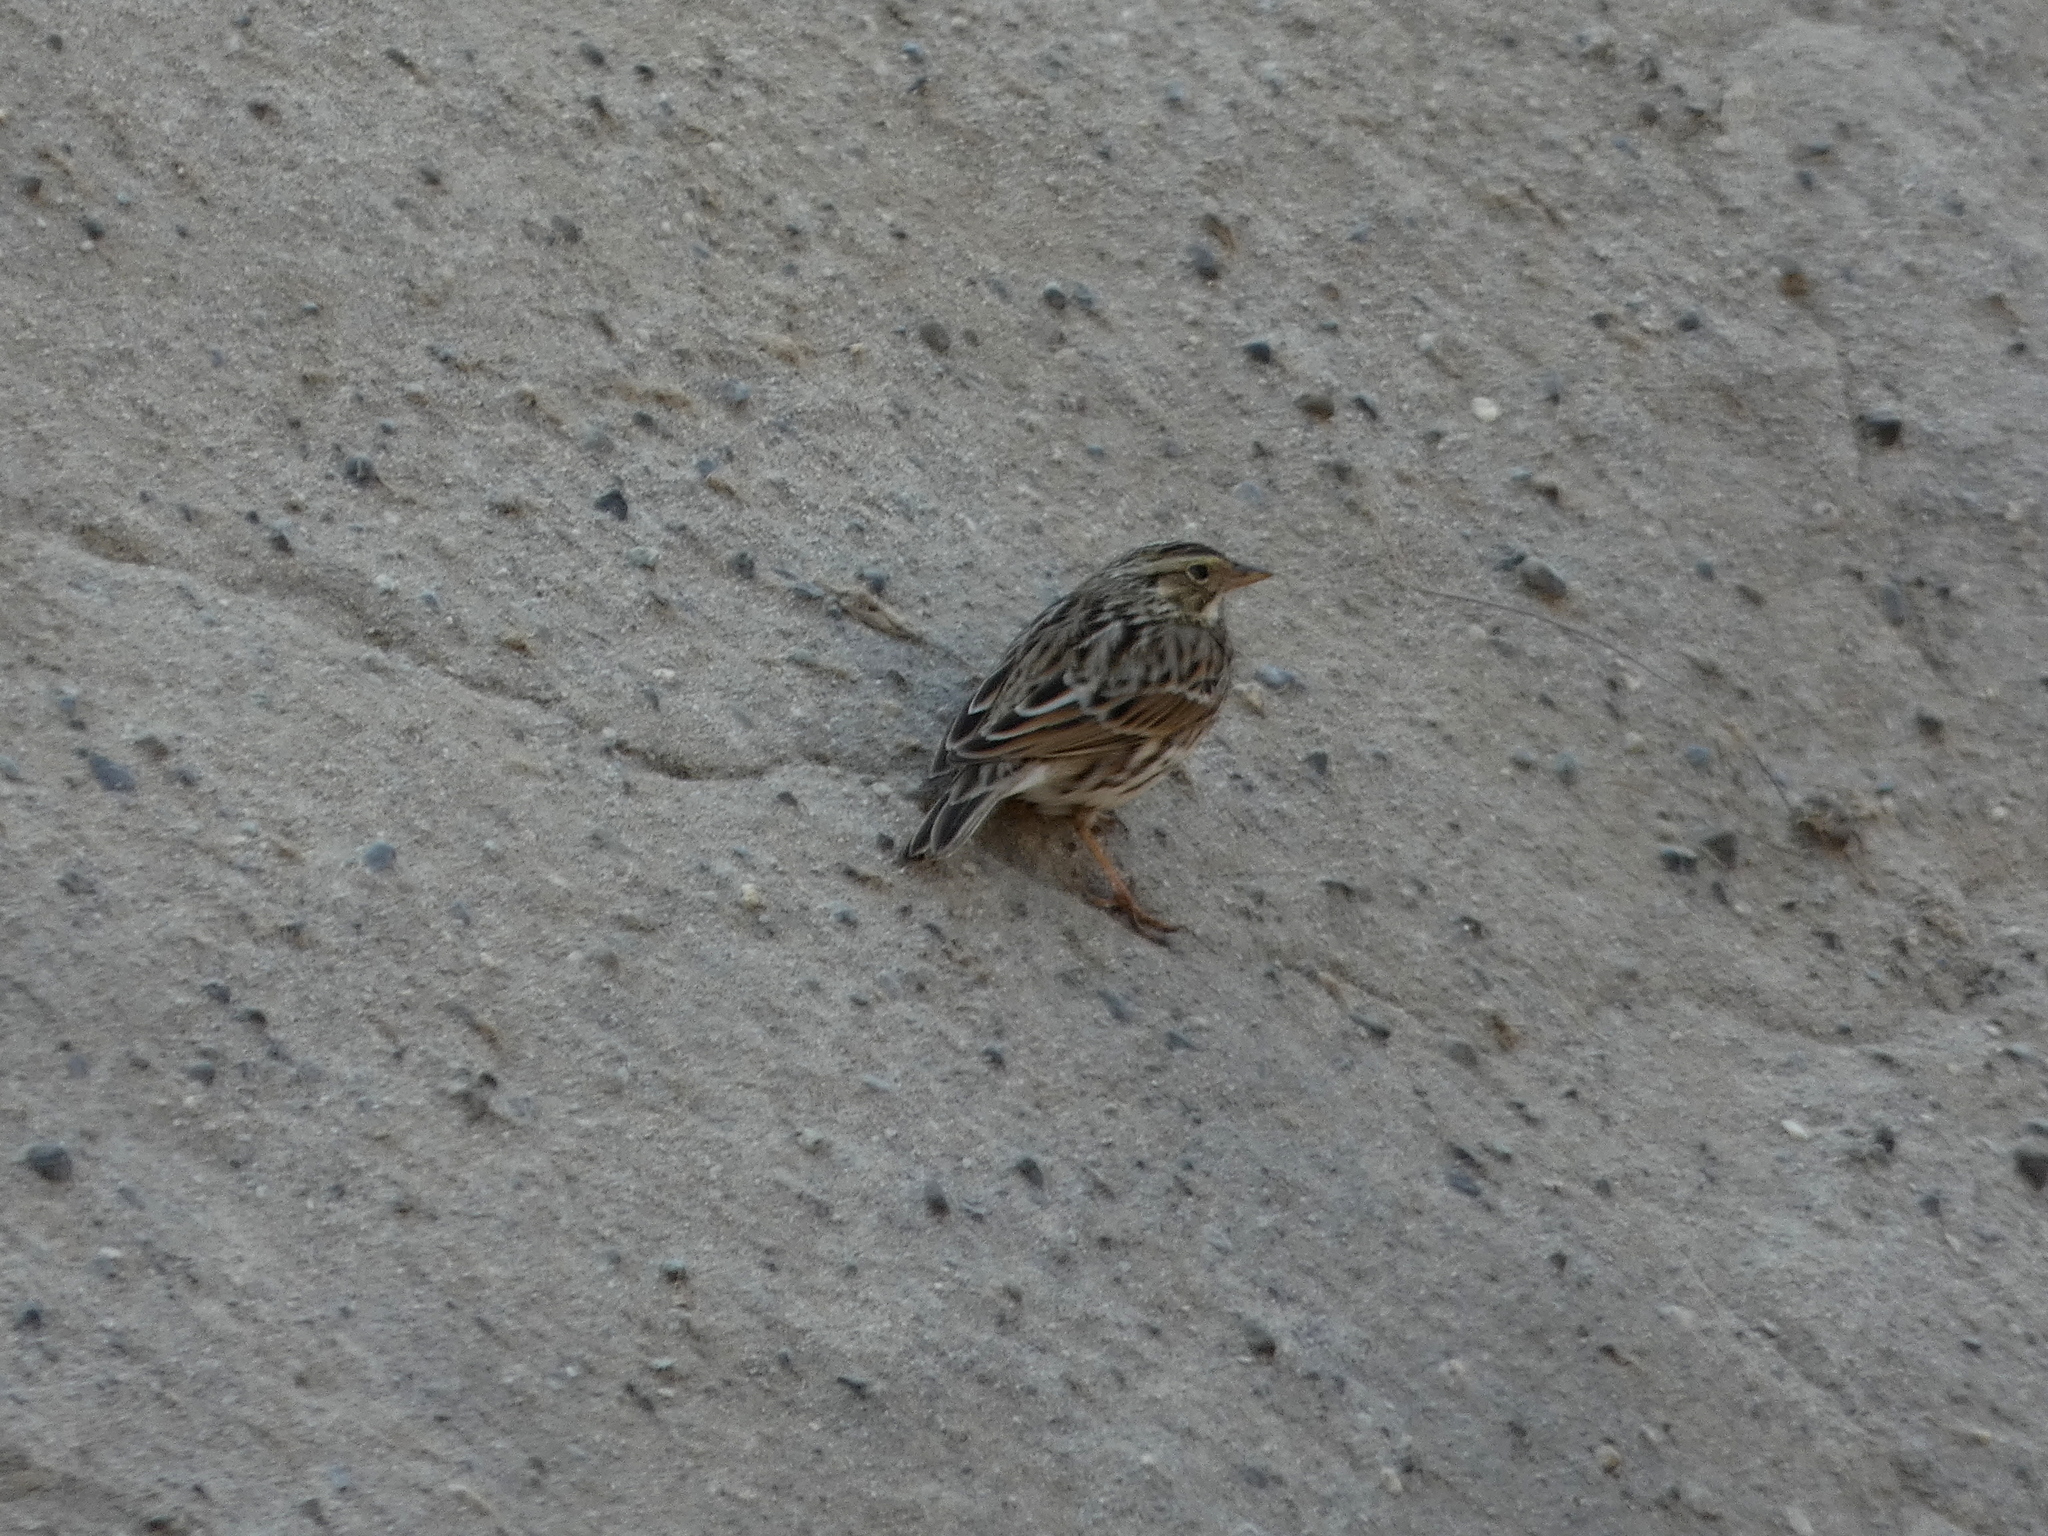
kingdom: Animalia
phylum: Chordata
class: Aves
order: Passeriformes
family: Passerellidae
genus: Passerculus
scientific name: Passerculus sandwichensis
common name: Savannah sparrow
